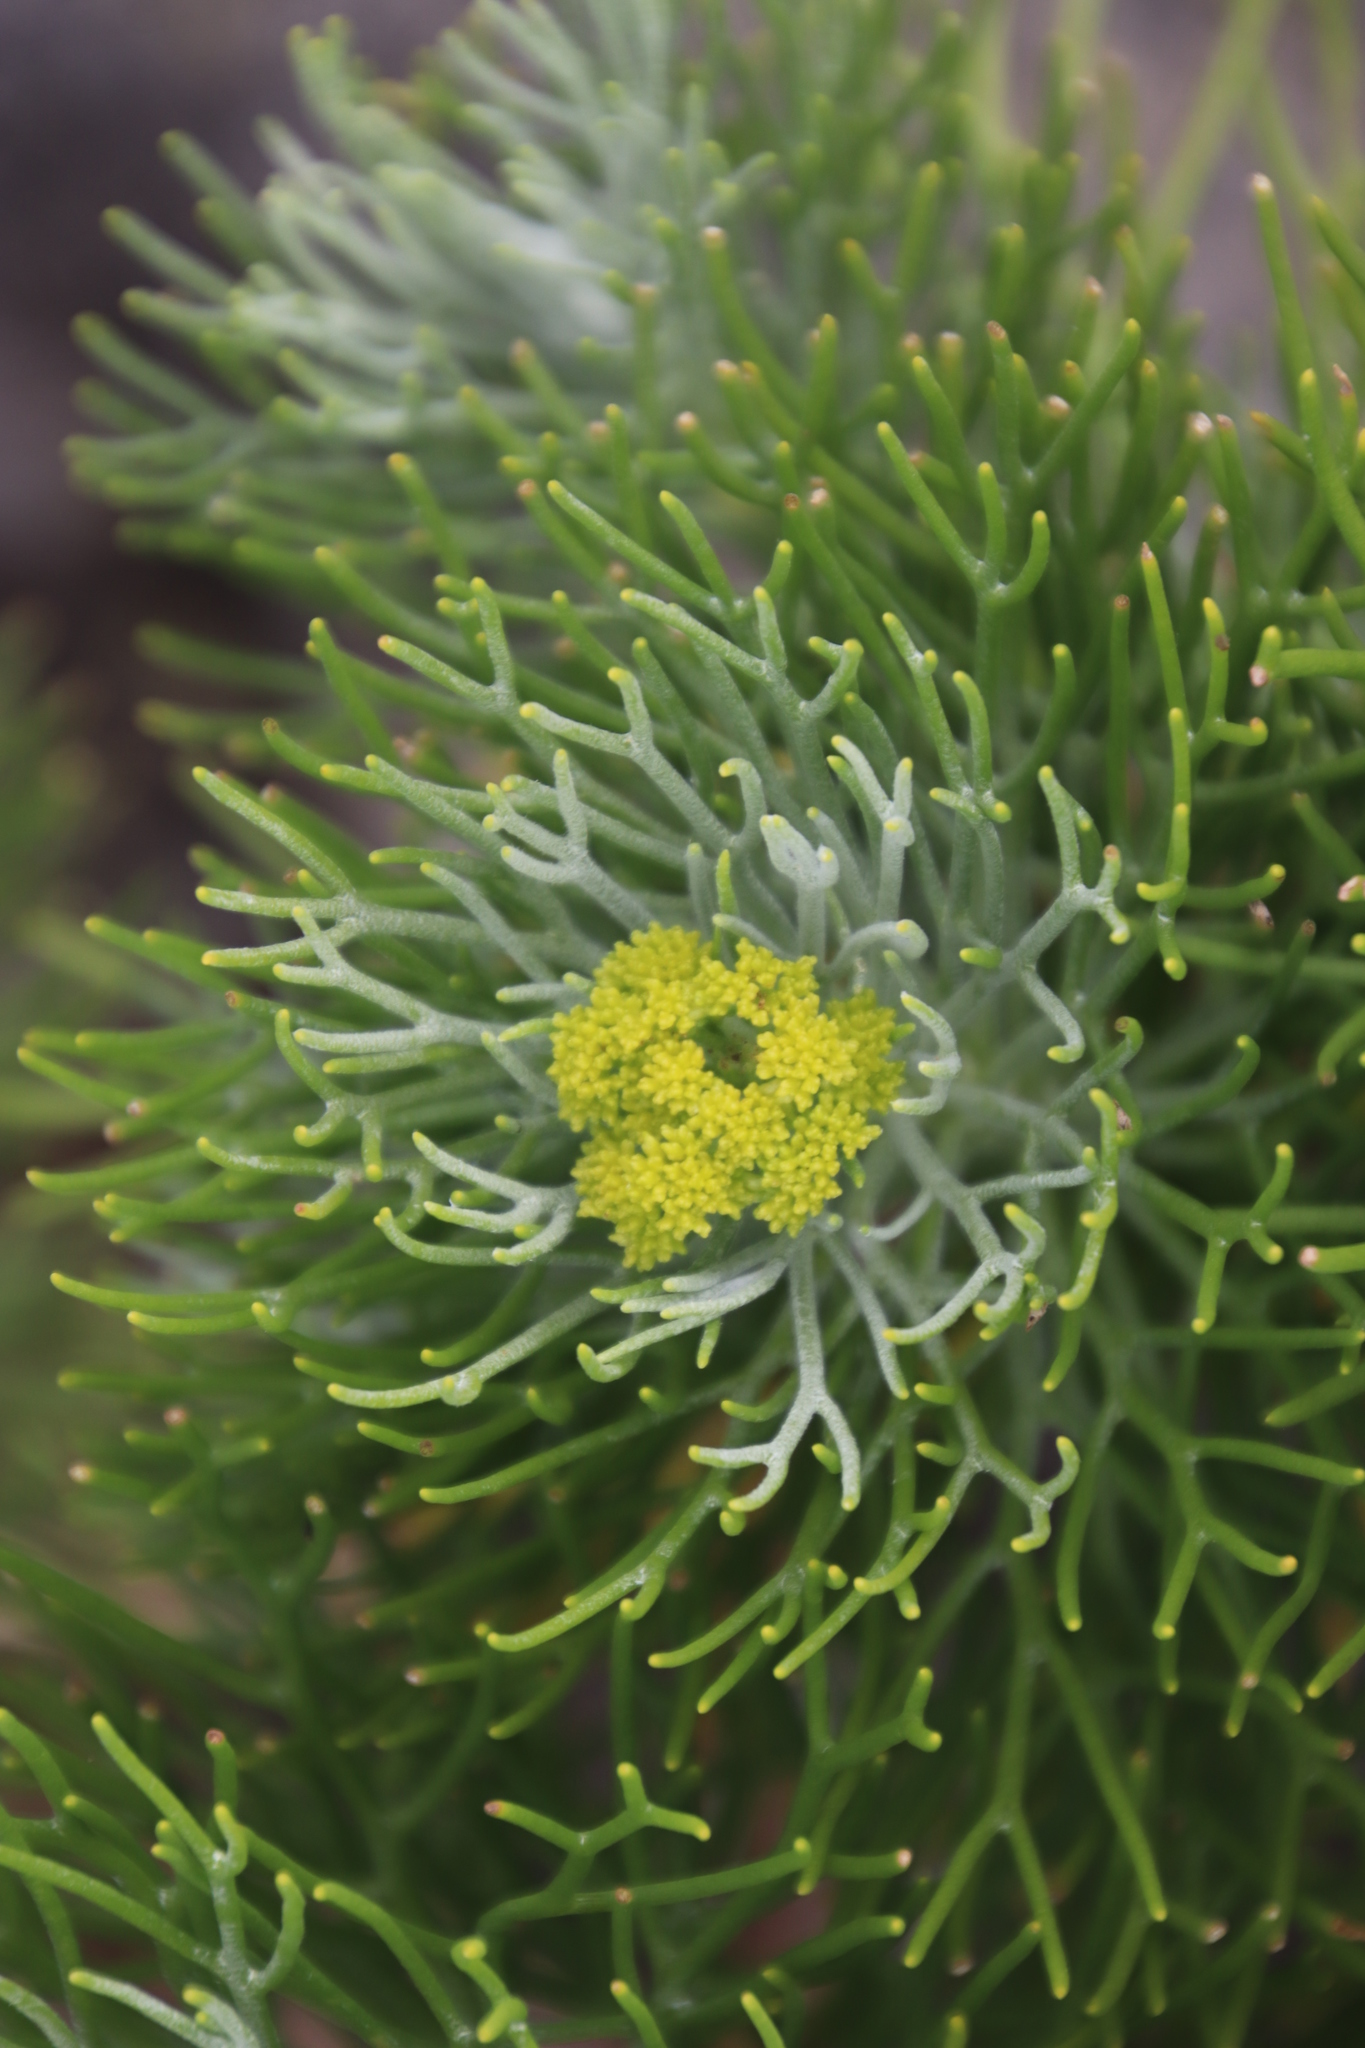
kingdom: Plantae
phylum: Tracheophyta
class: Magnoliopsida
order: Asterales
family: Asteraceae
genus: Athanasia
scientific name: Athanasia crithmifolia
